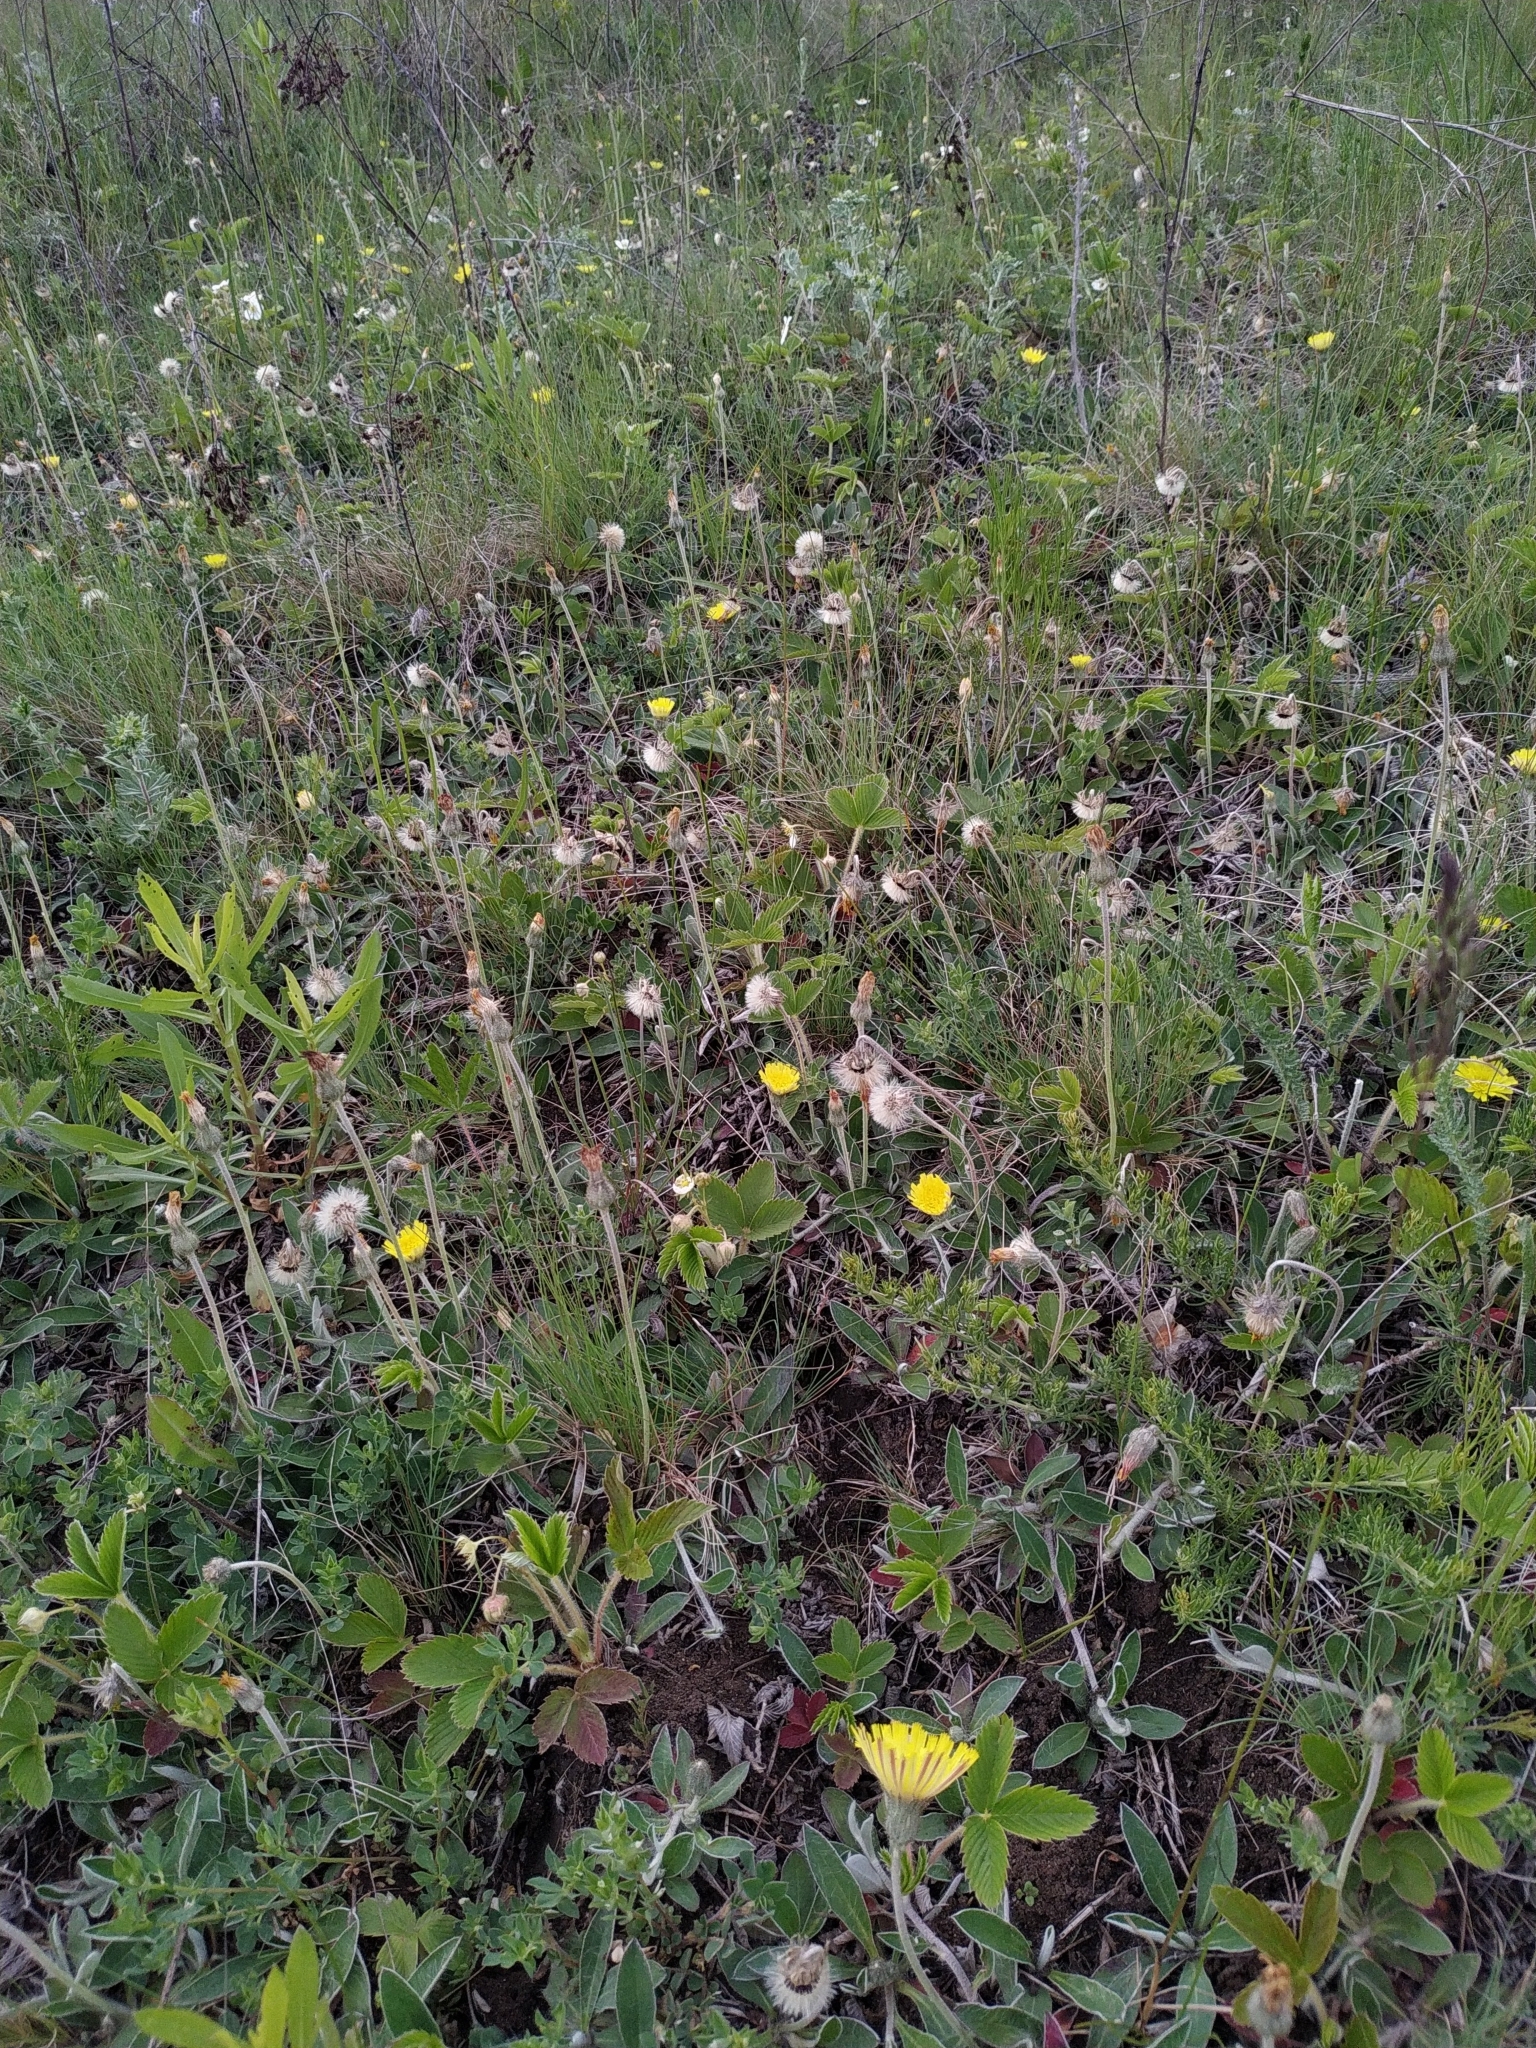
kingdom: Plantae
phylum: Tracheophyta
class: Magnoliopsida
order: Asterales
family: Asteraceae
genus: Pilosella
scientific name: Pilosella officinarum
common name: Mouse-ear hawkweed
